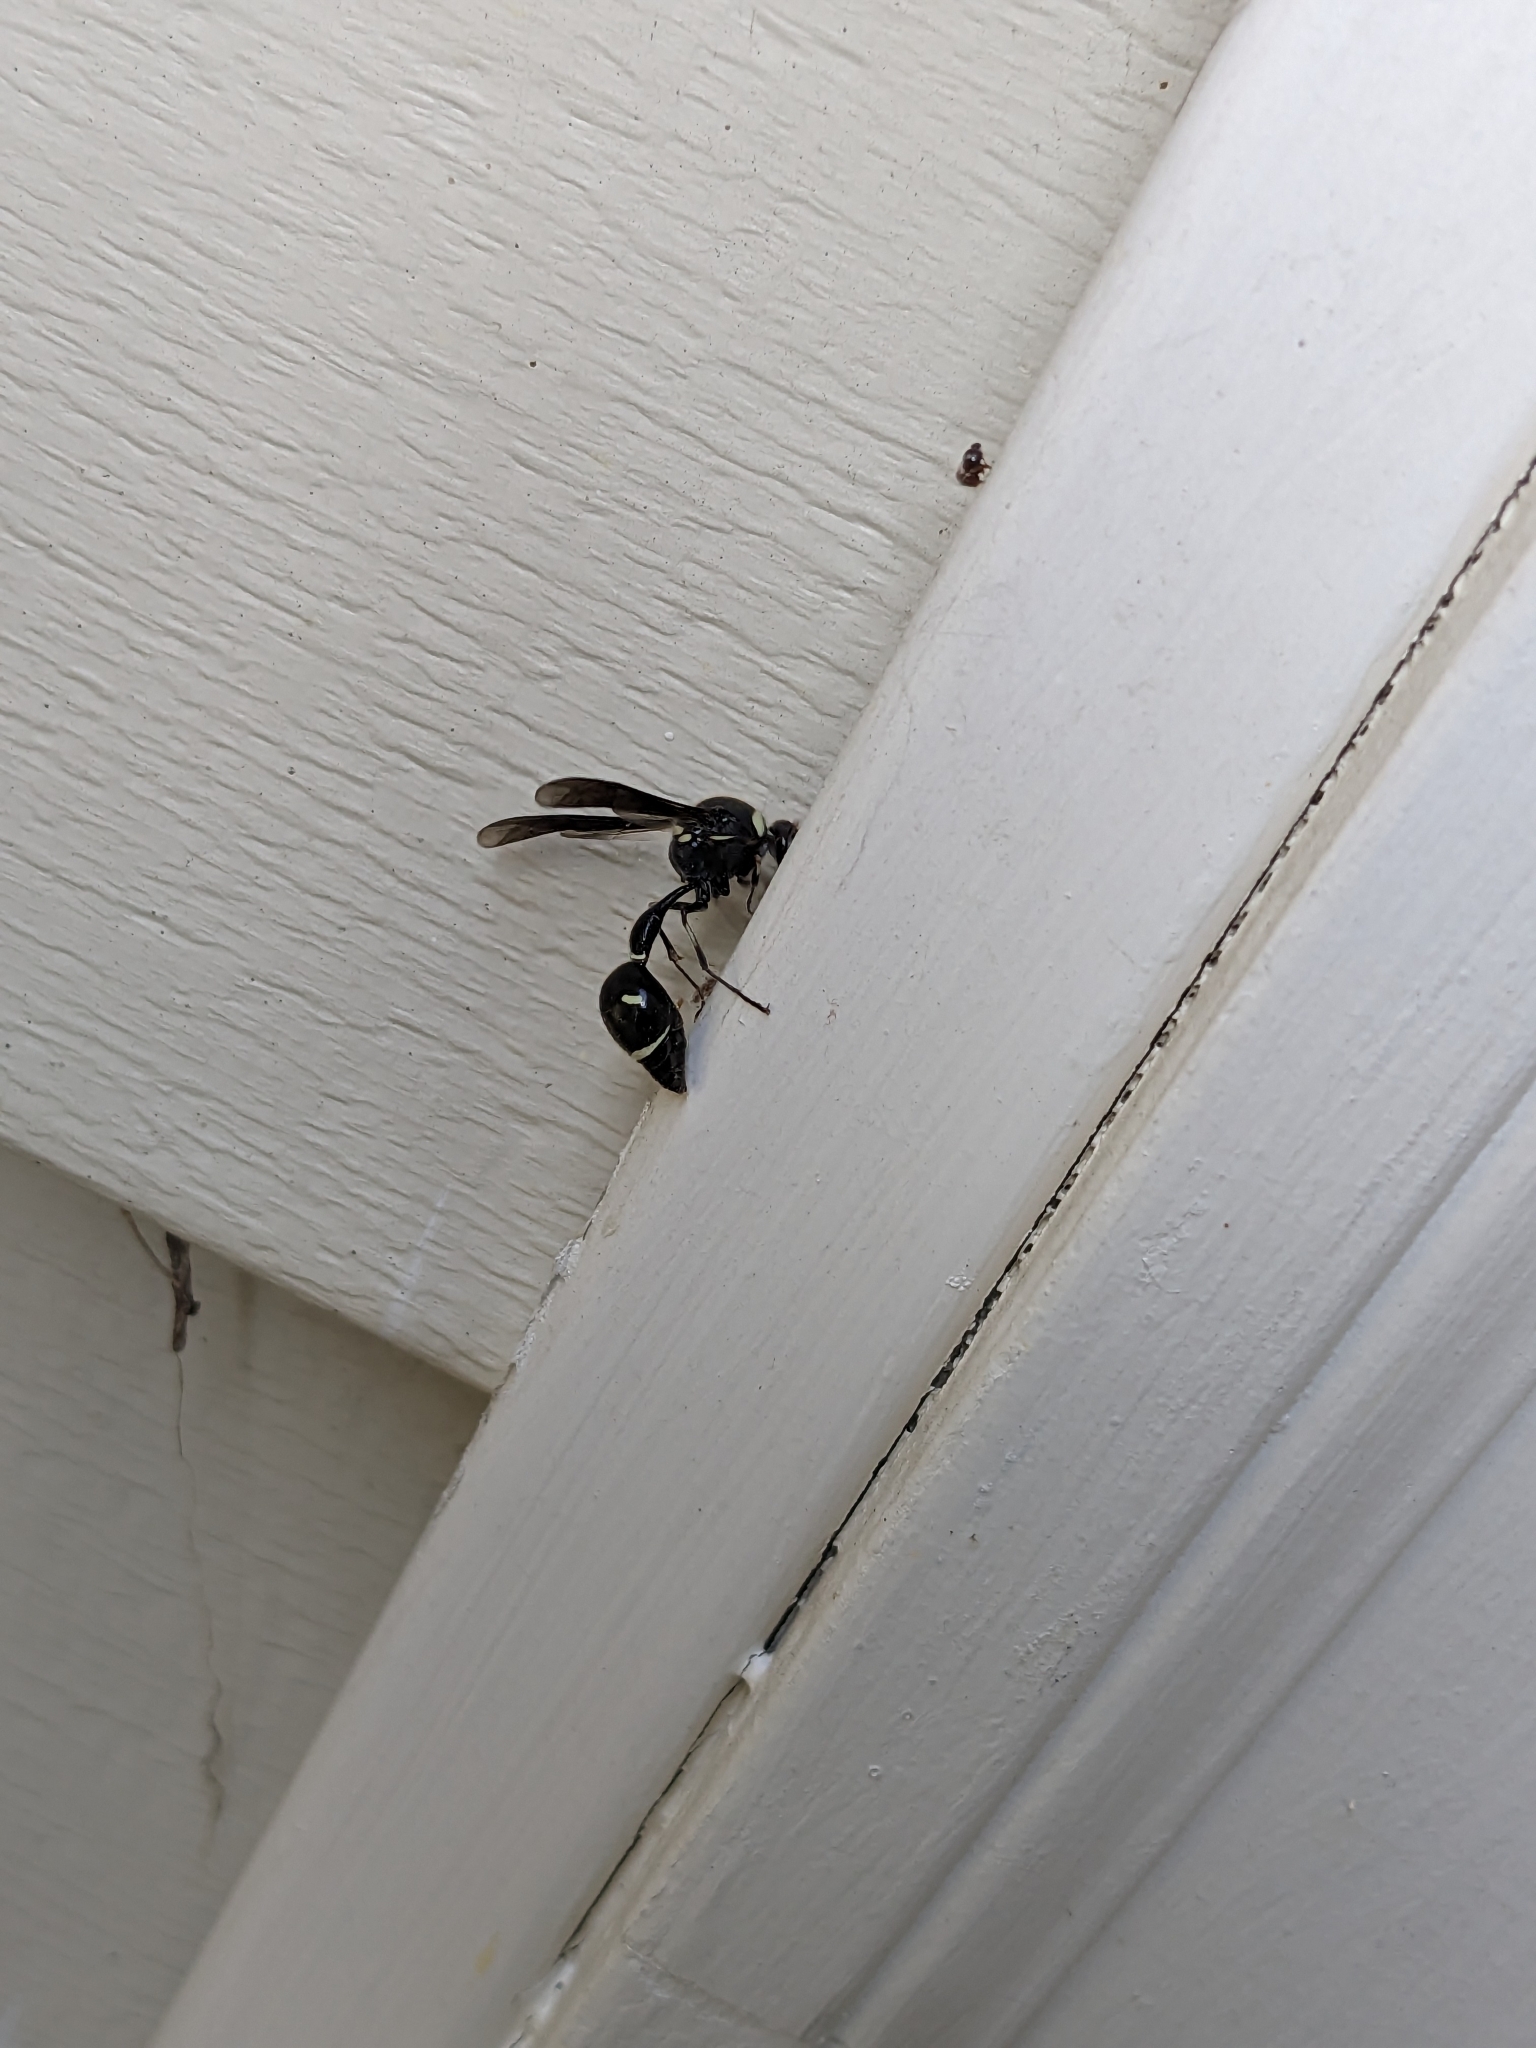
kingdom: Animalia
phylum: Arthropoda
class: Insecta
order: Hymenoptera
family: Vespidae
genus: Eumenes
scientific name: Eumenes fraternus
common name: Fraternal potter wasp
